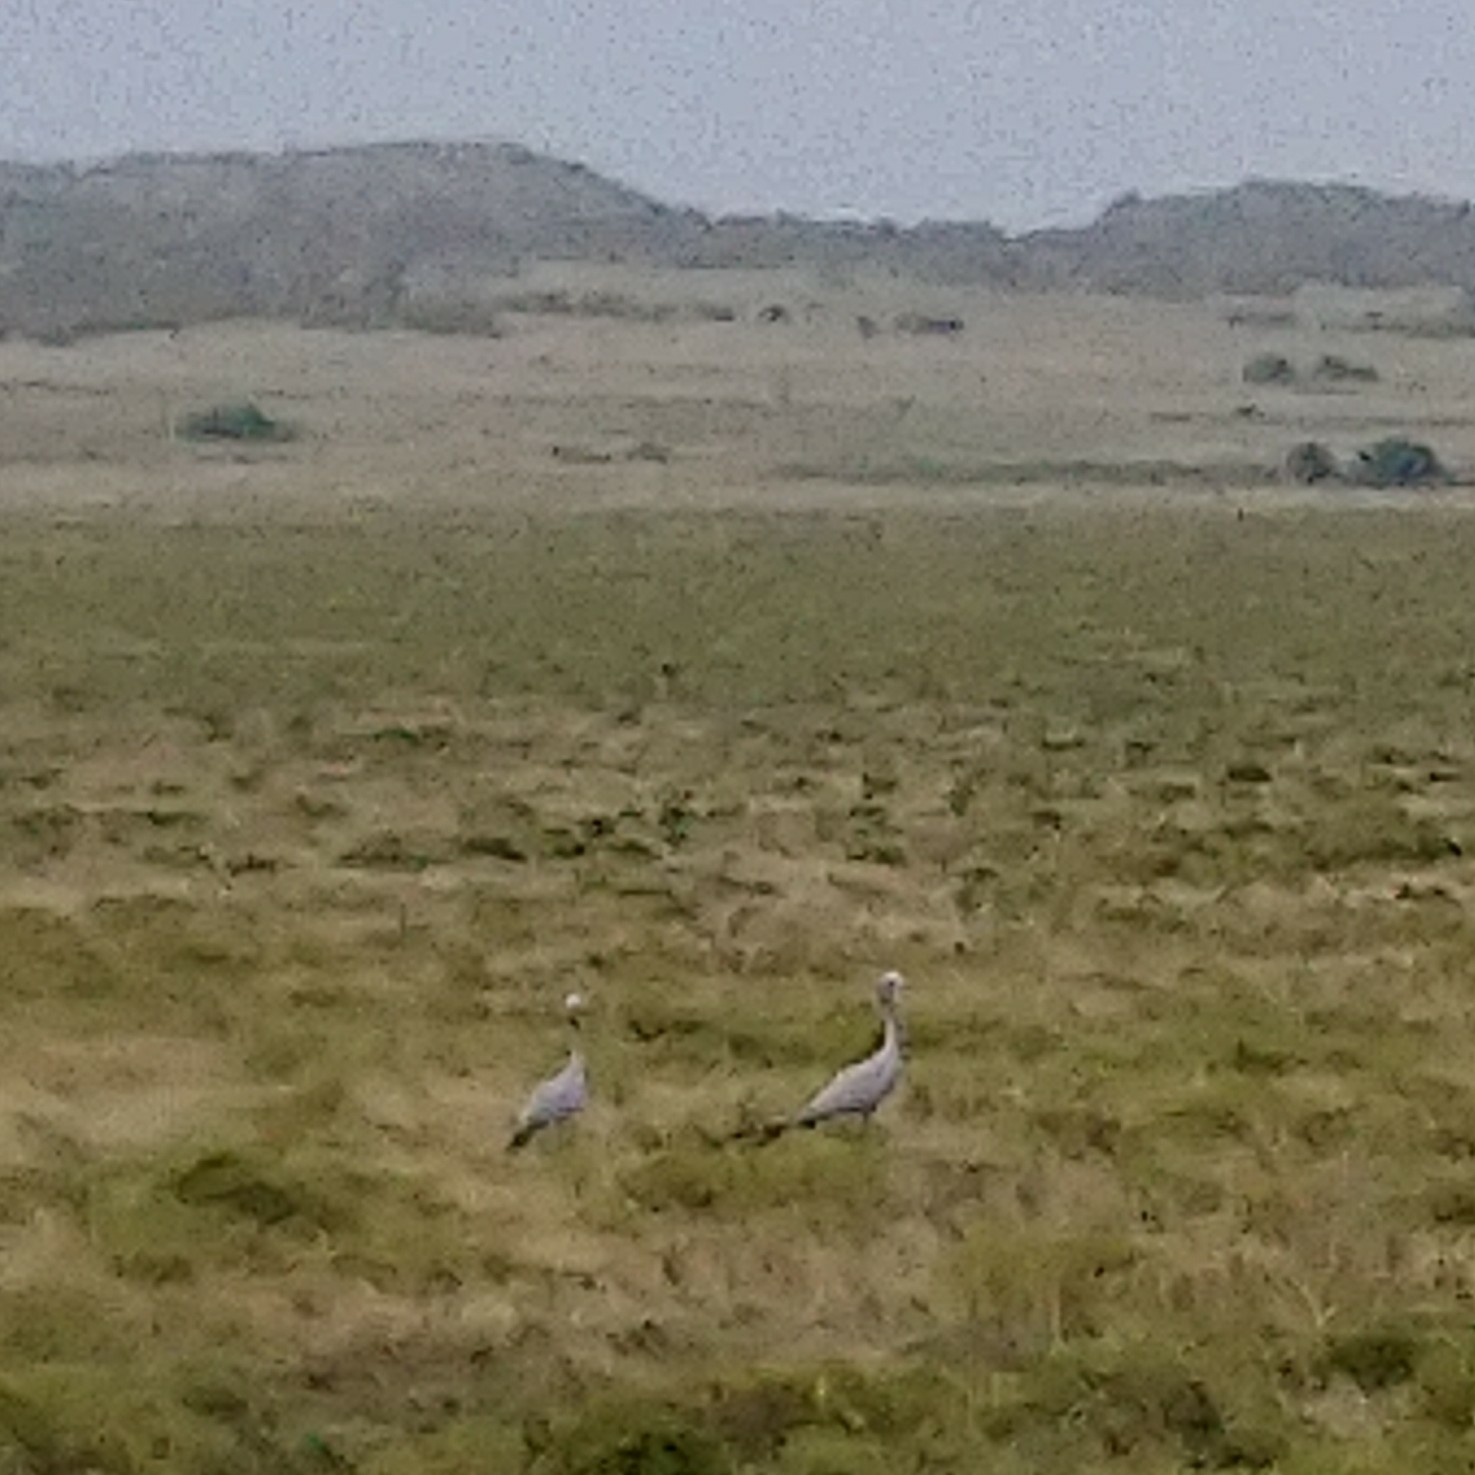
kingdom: Animalia
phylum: Chordata
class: Aves
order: Gruiformes
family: Gruidae
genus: Anthropoides
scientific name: Anthropoides paradiseus
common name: Blue crane
